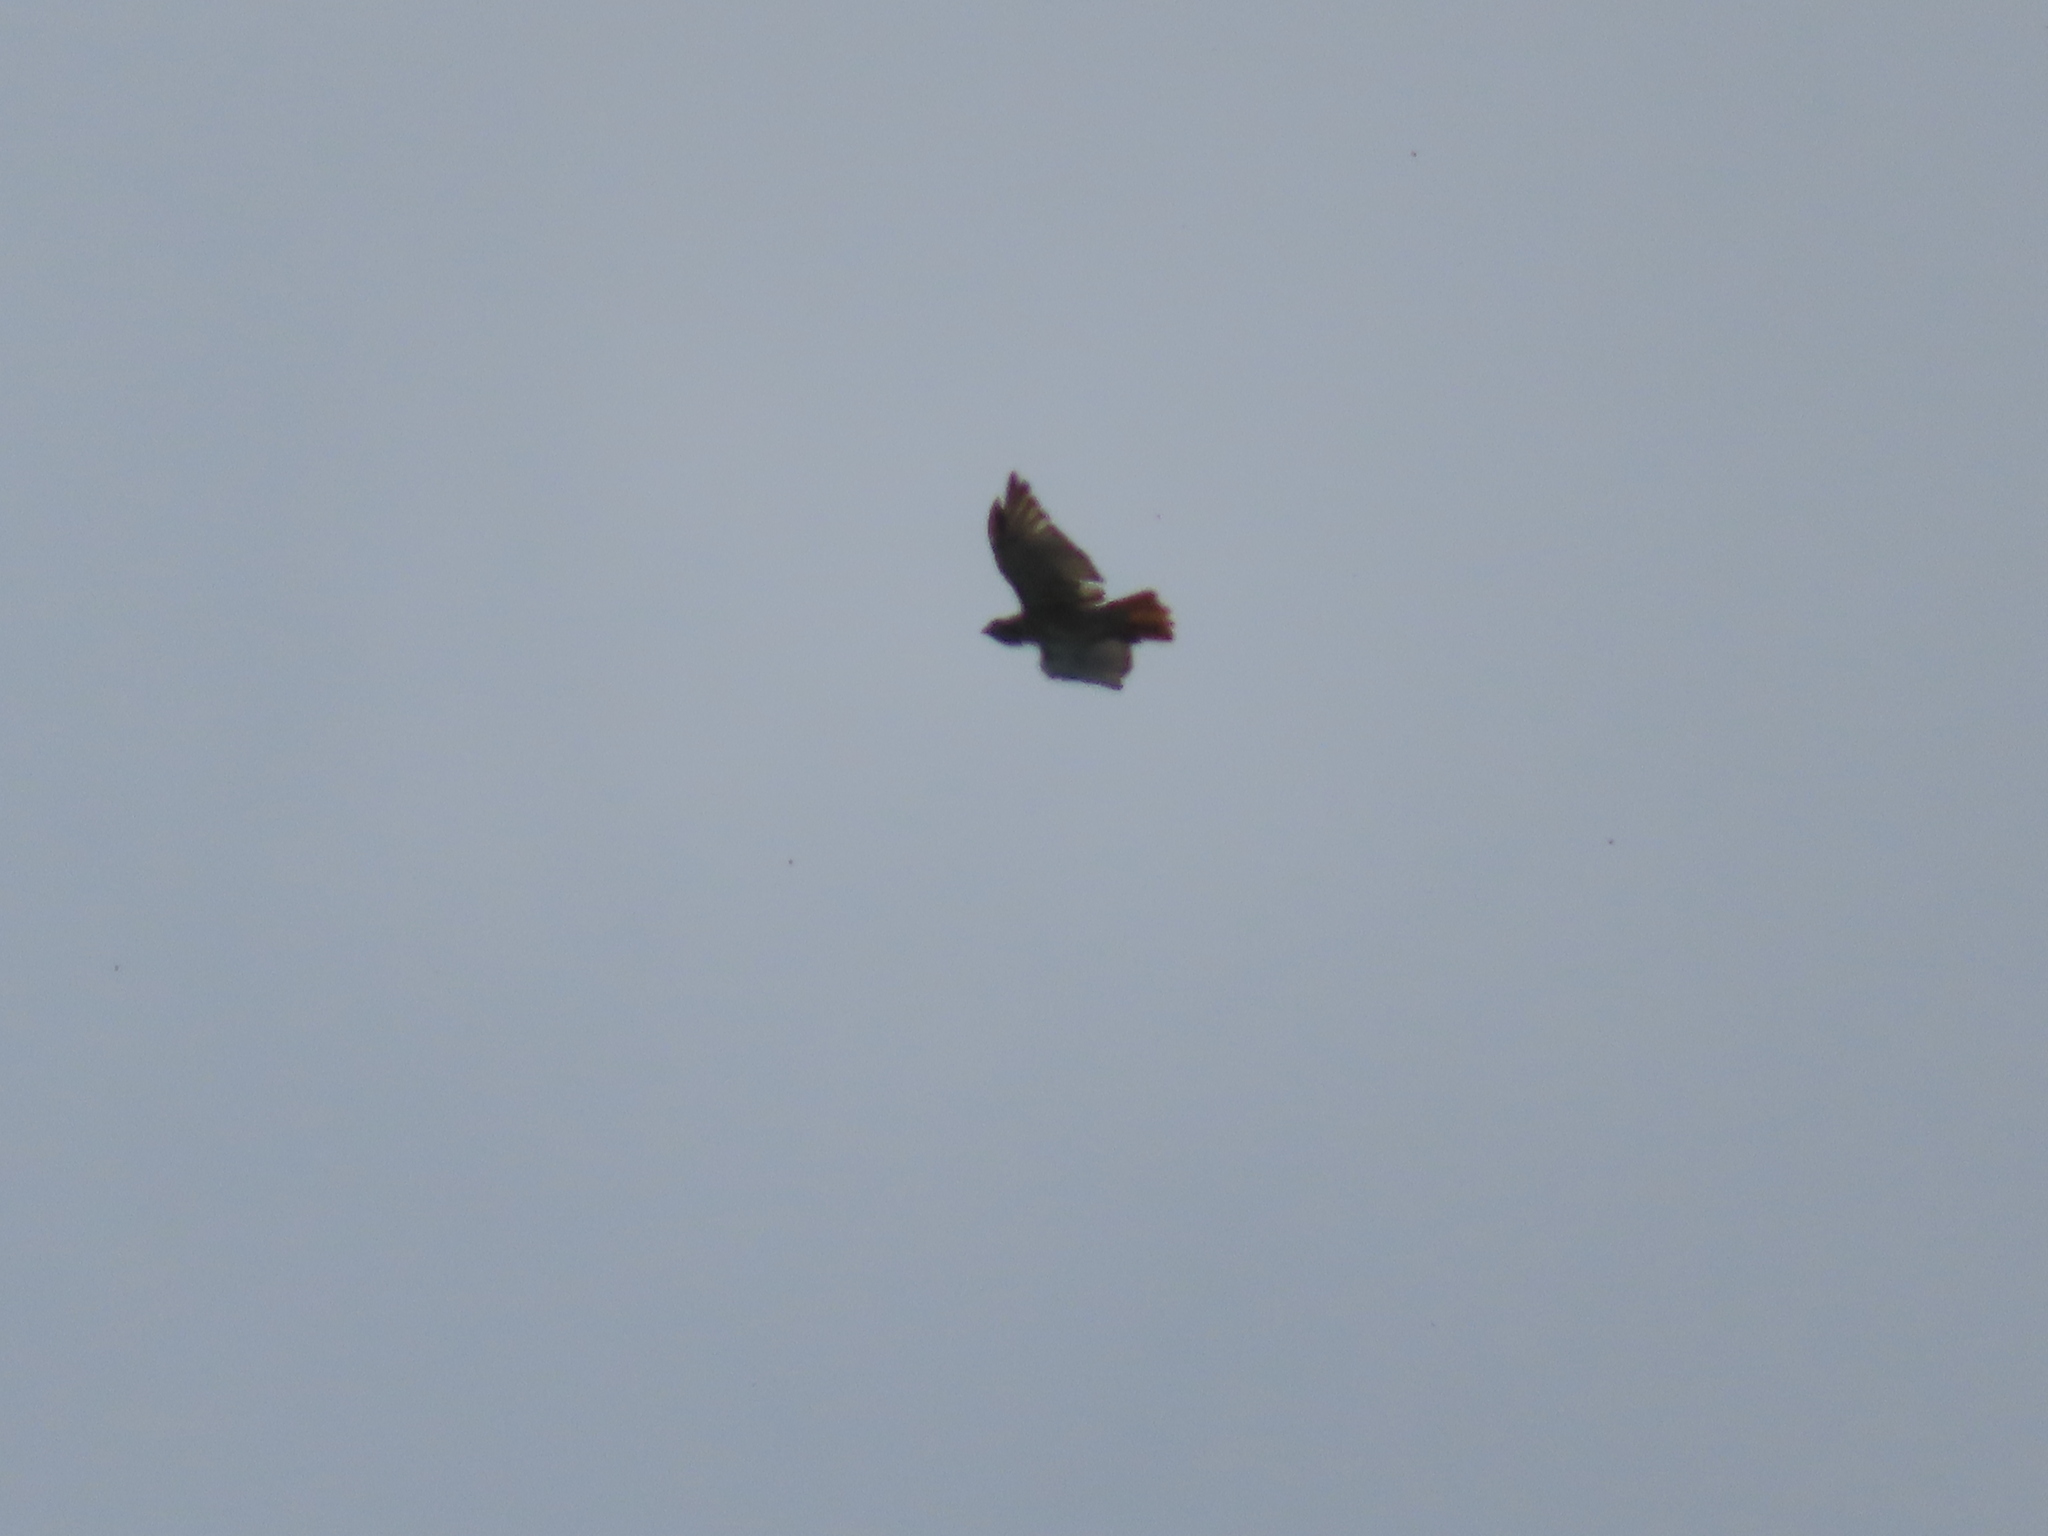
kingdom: Animalia
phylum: Chordata
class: Aves
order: Accipitriformes
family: Accipitridae
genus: Buteo
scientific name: Buteo jamaicensis
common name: Red-tailed hawk
